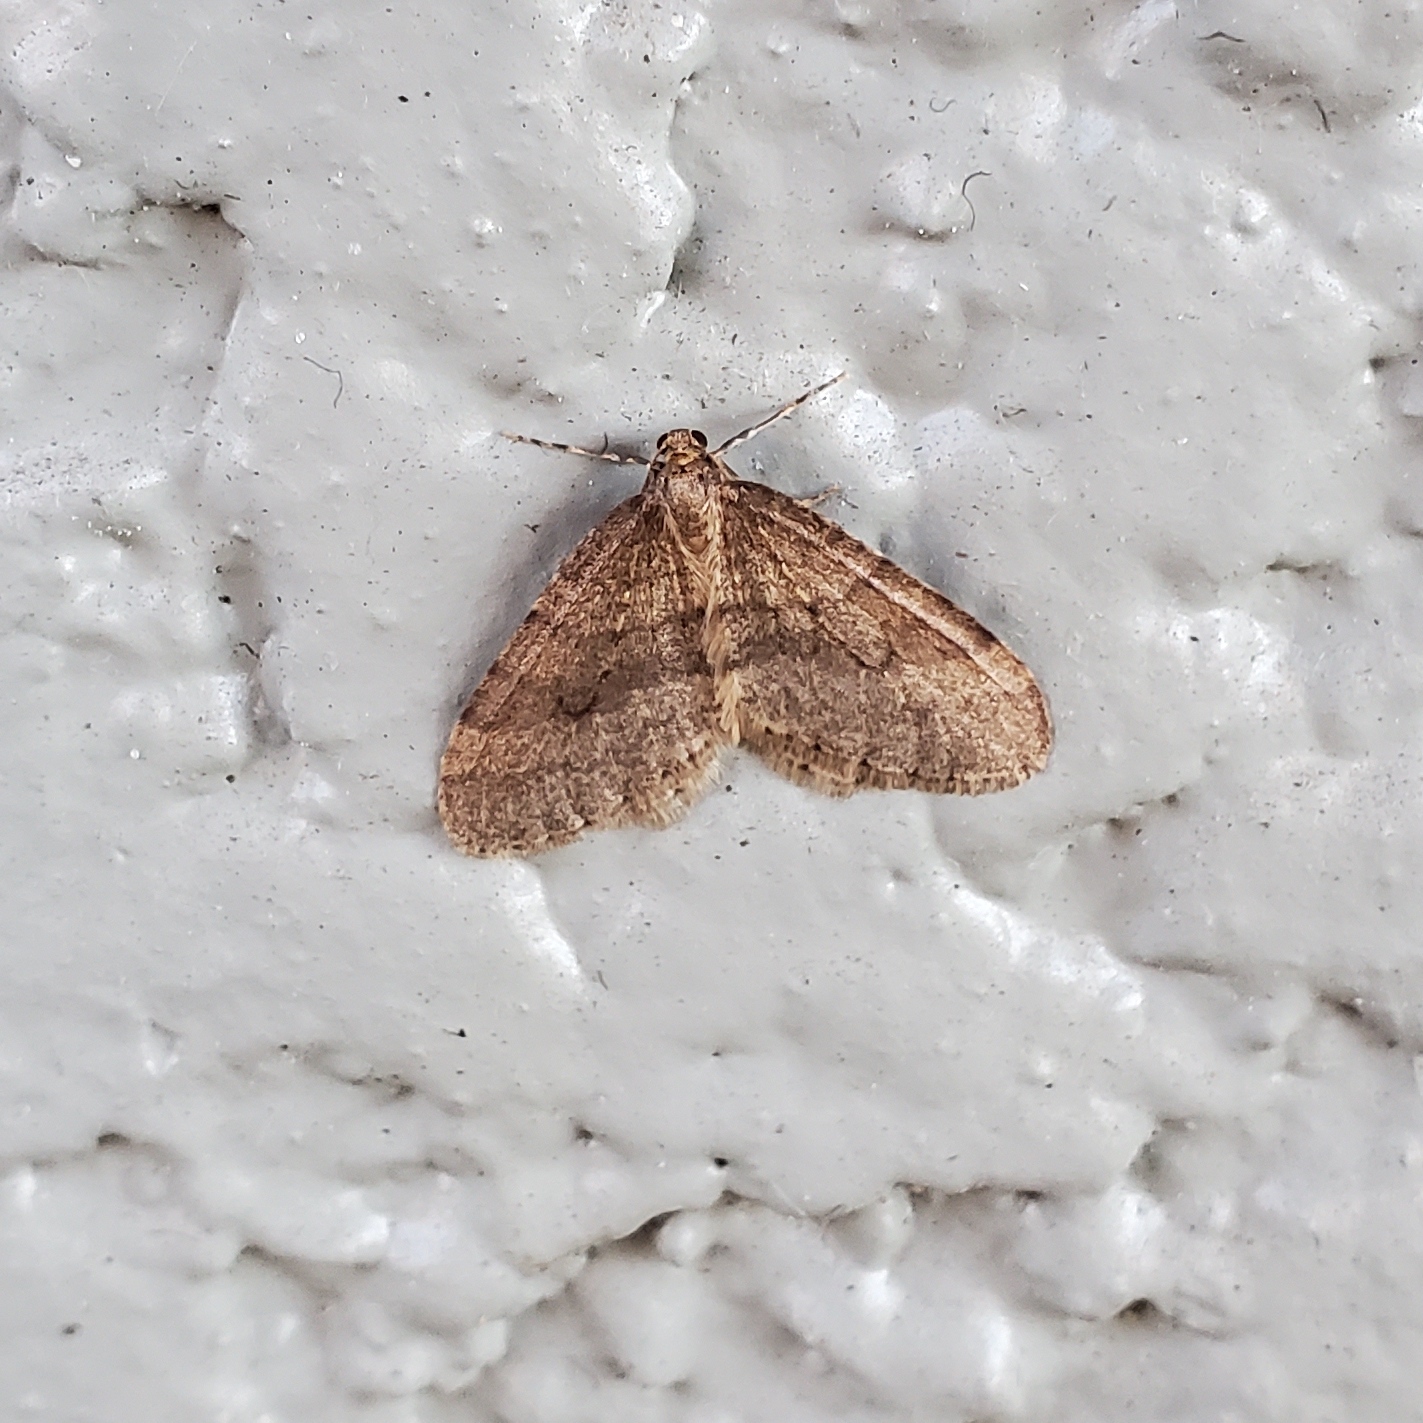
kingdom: Animalia
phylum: Arthropoda
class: Insecta
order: Lepidoptera
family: Geometridae
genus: Operophtera
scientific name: Operophtera
